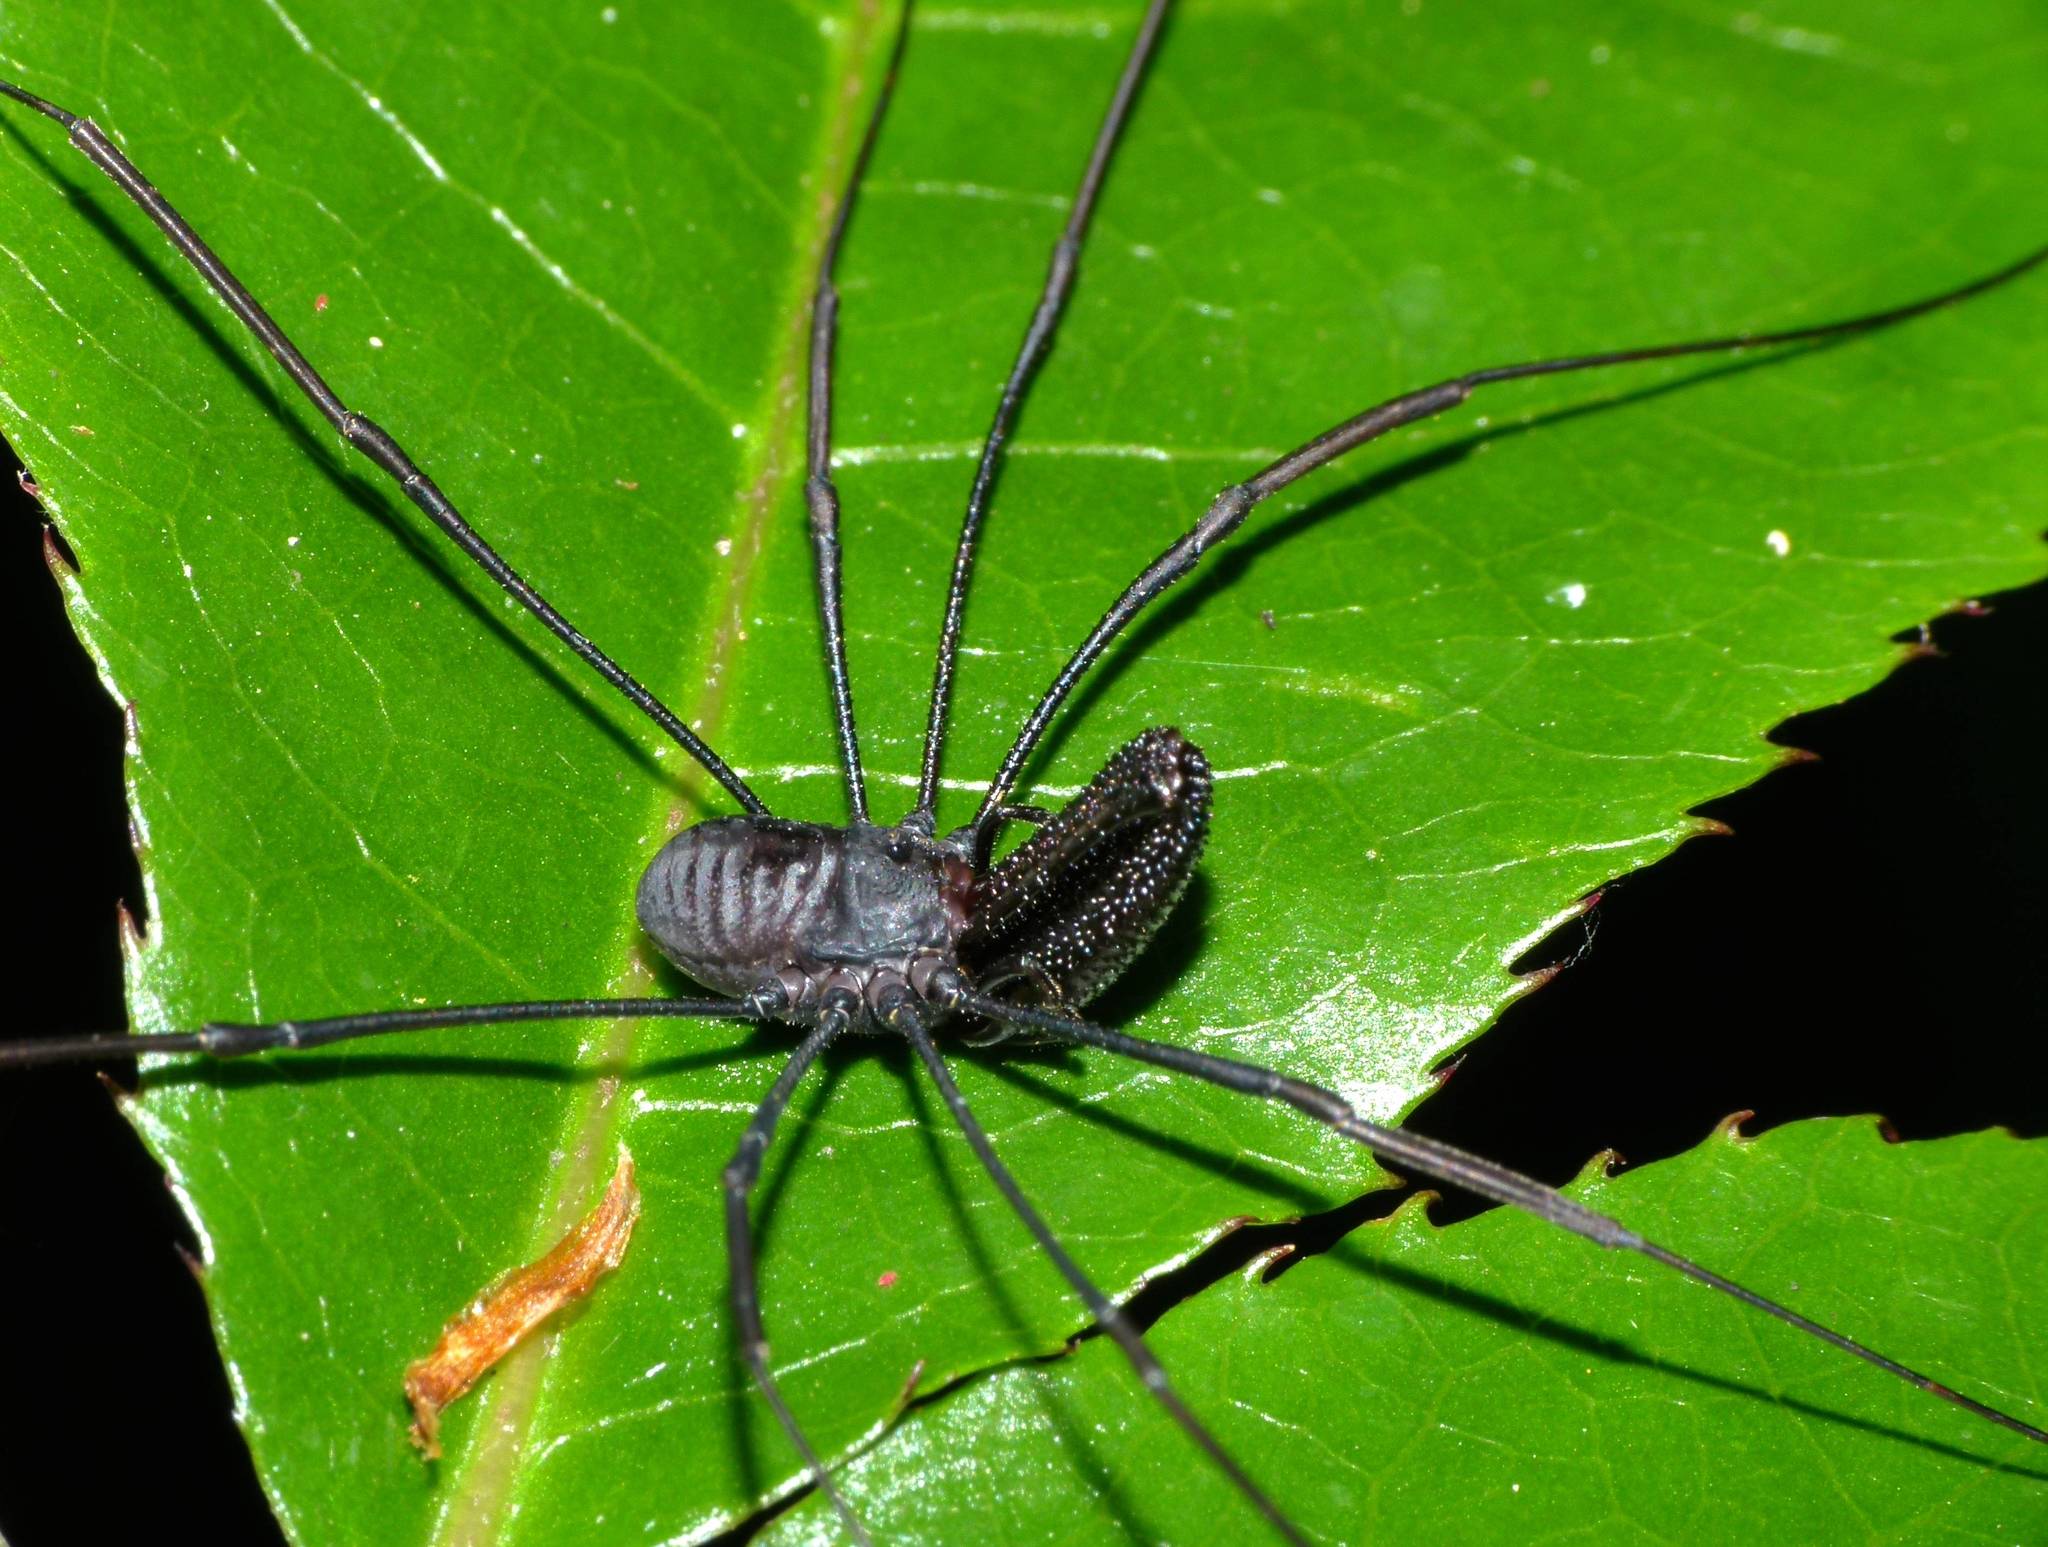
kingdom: Animalia
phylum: Arthropoda
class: Arachnida
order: Opiliones
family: Neopilionidae
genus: Pantopsalis
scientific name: Pantopsalis albipalpis
